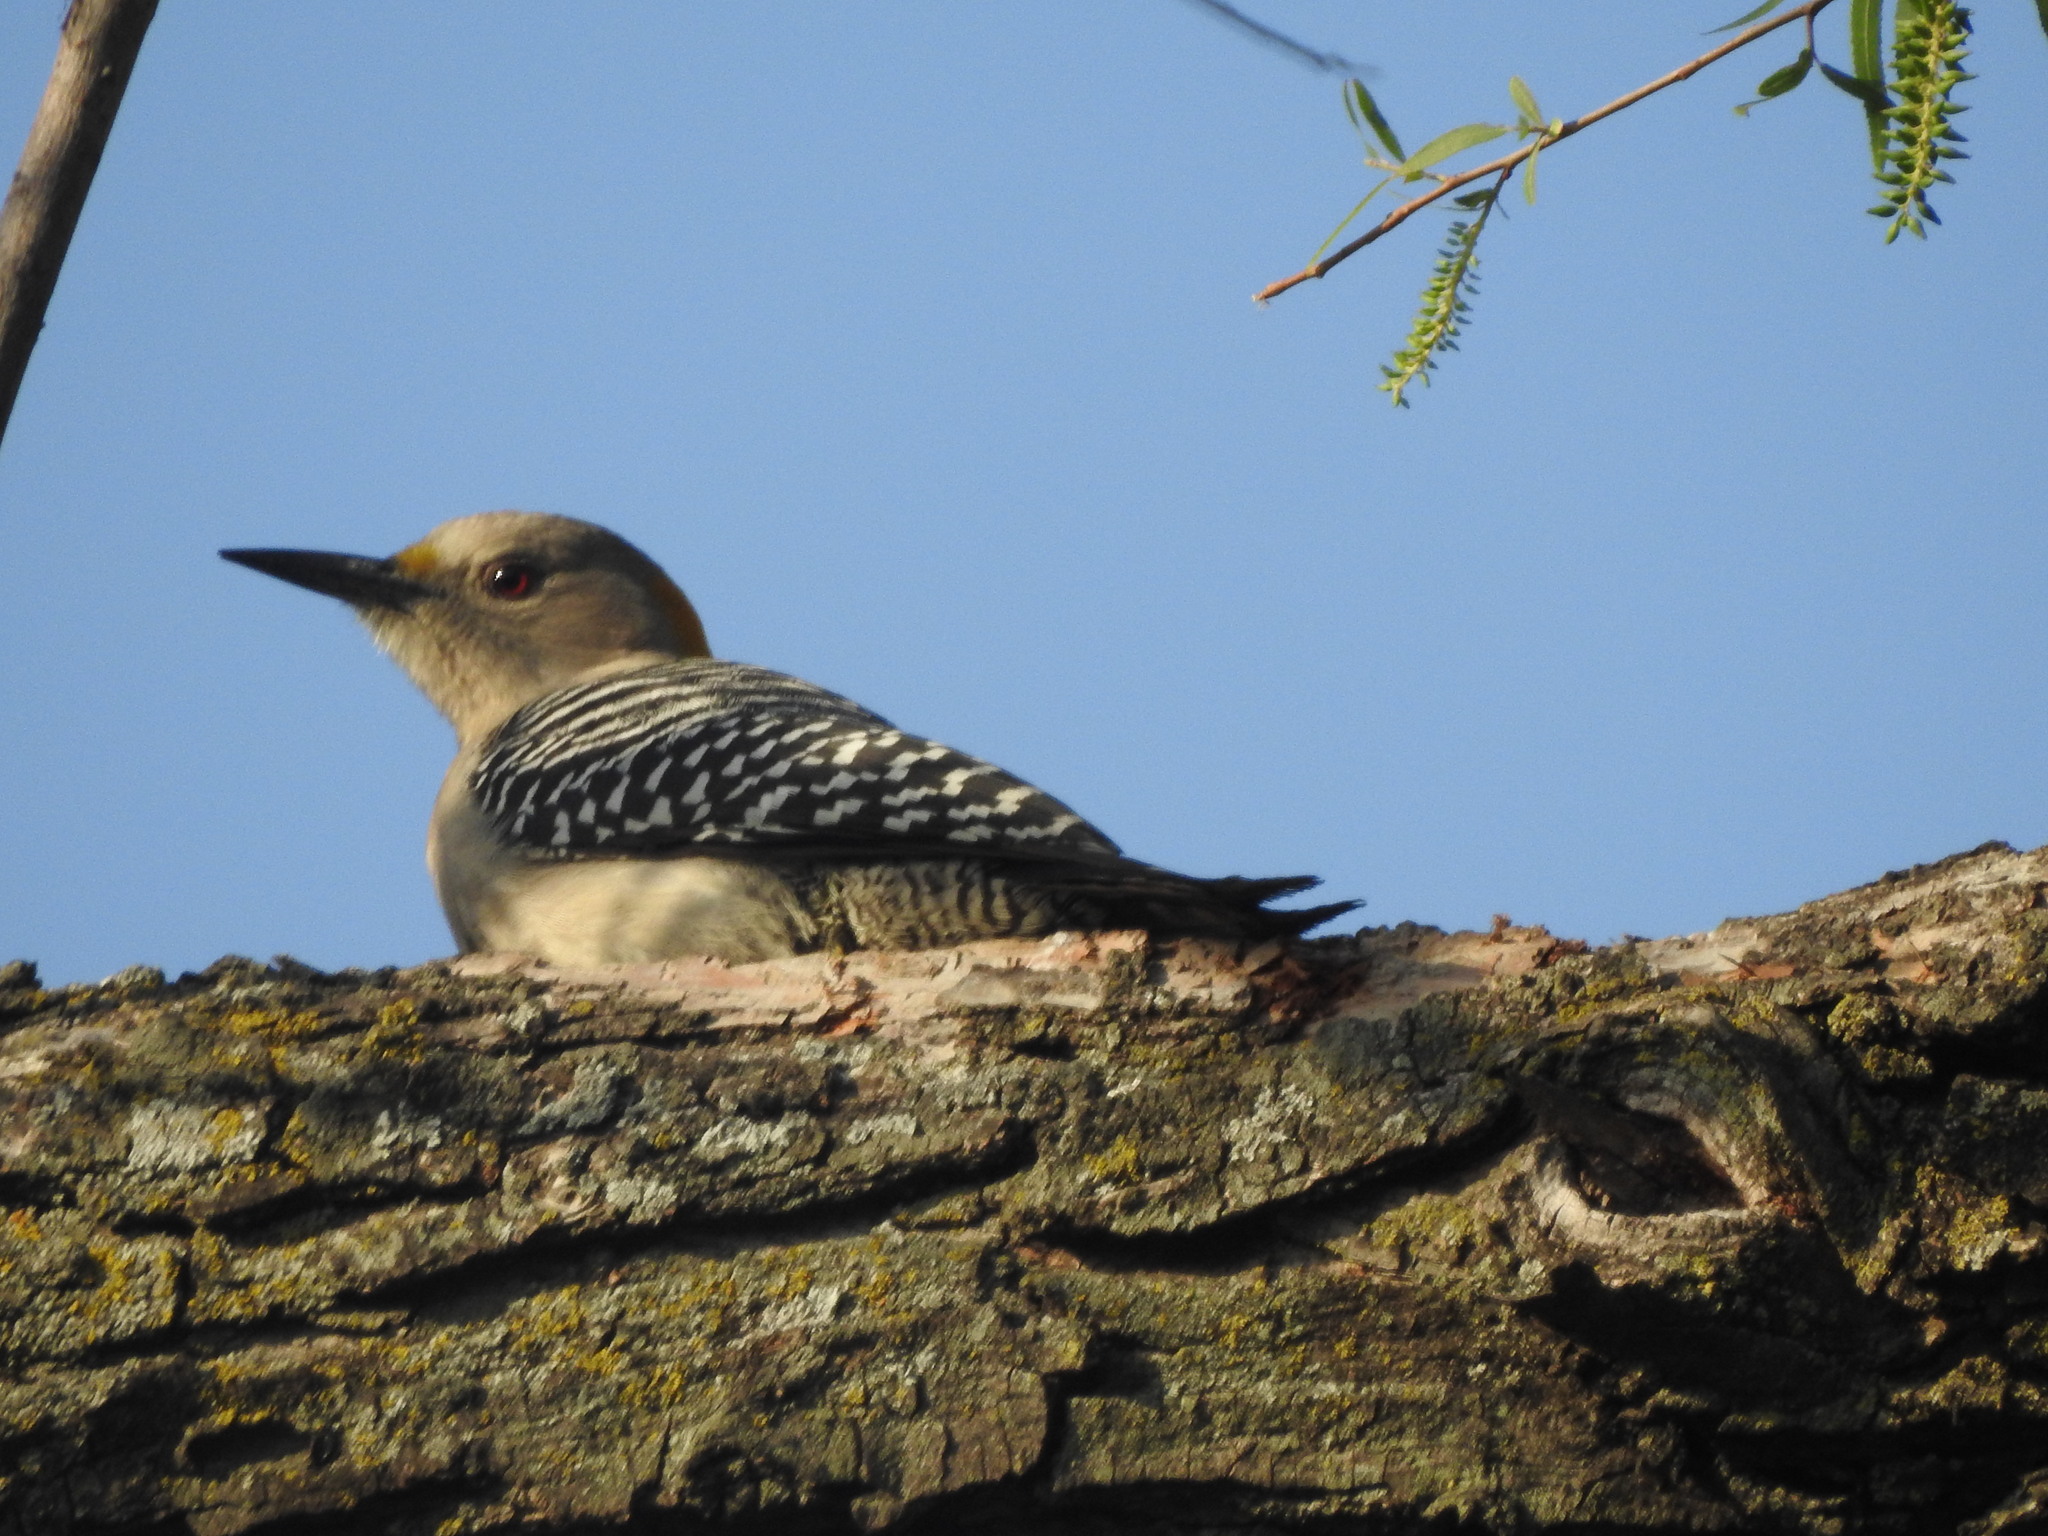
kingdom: Animalia
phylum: Chordata
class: Aves
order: Piciformes
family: Picidae
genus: Melanerpes
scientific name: Melanerpes aurifrons
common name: Golden-fronted woodpecker
